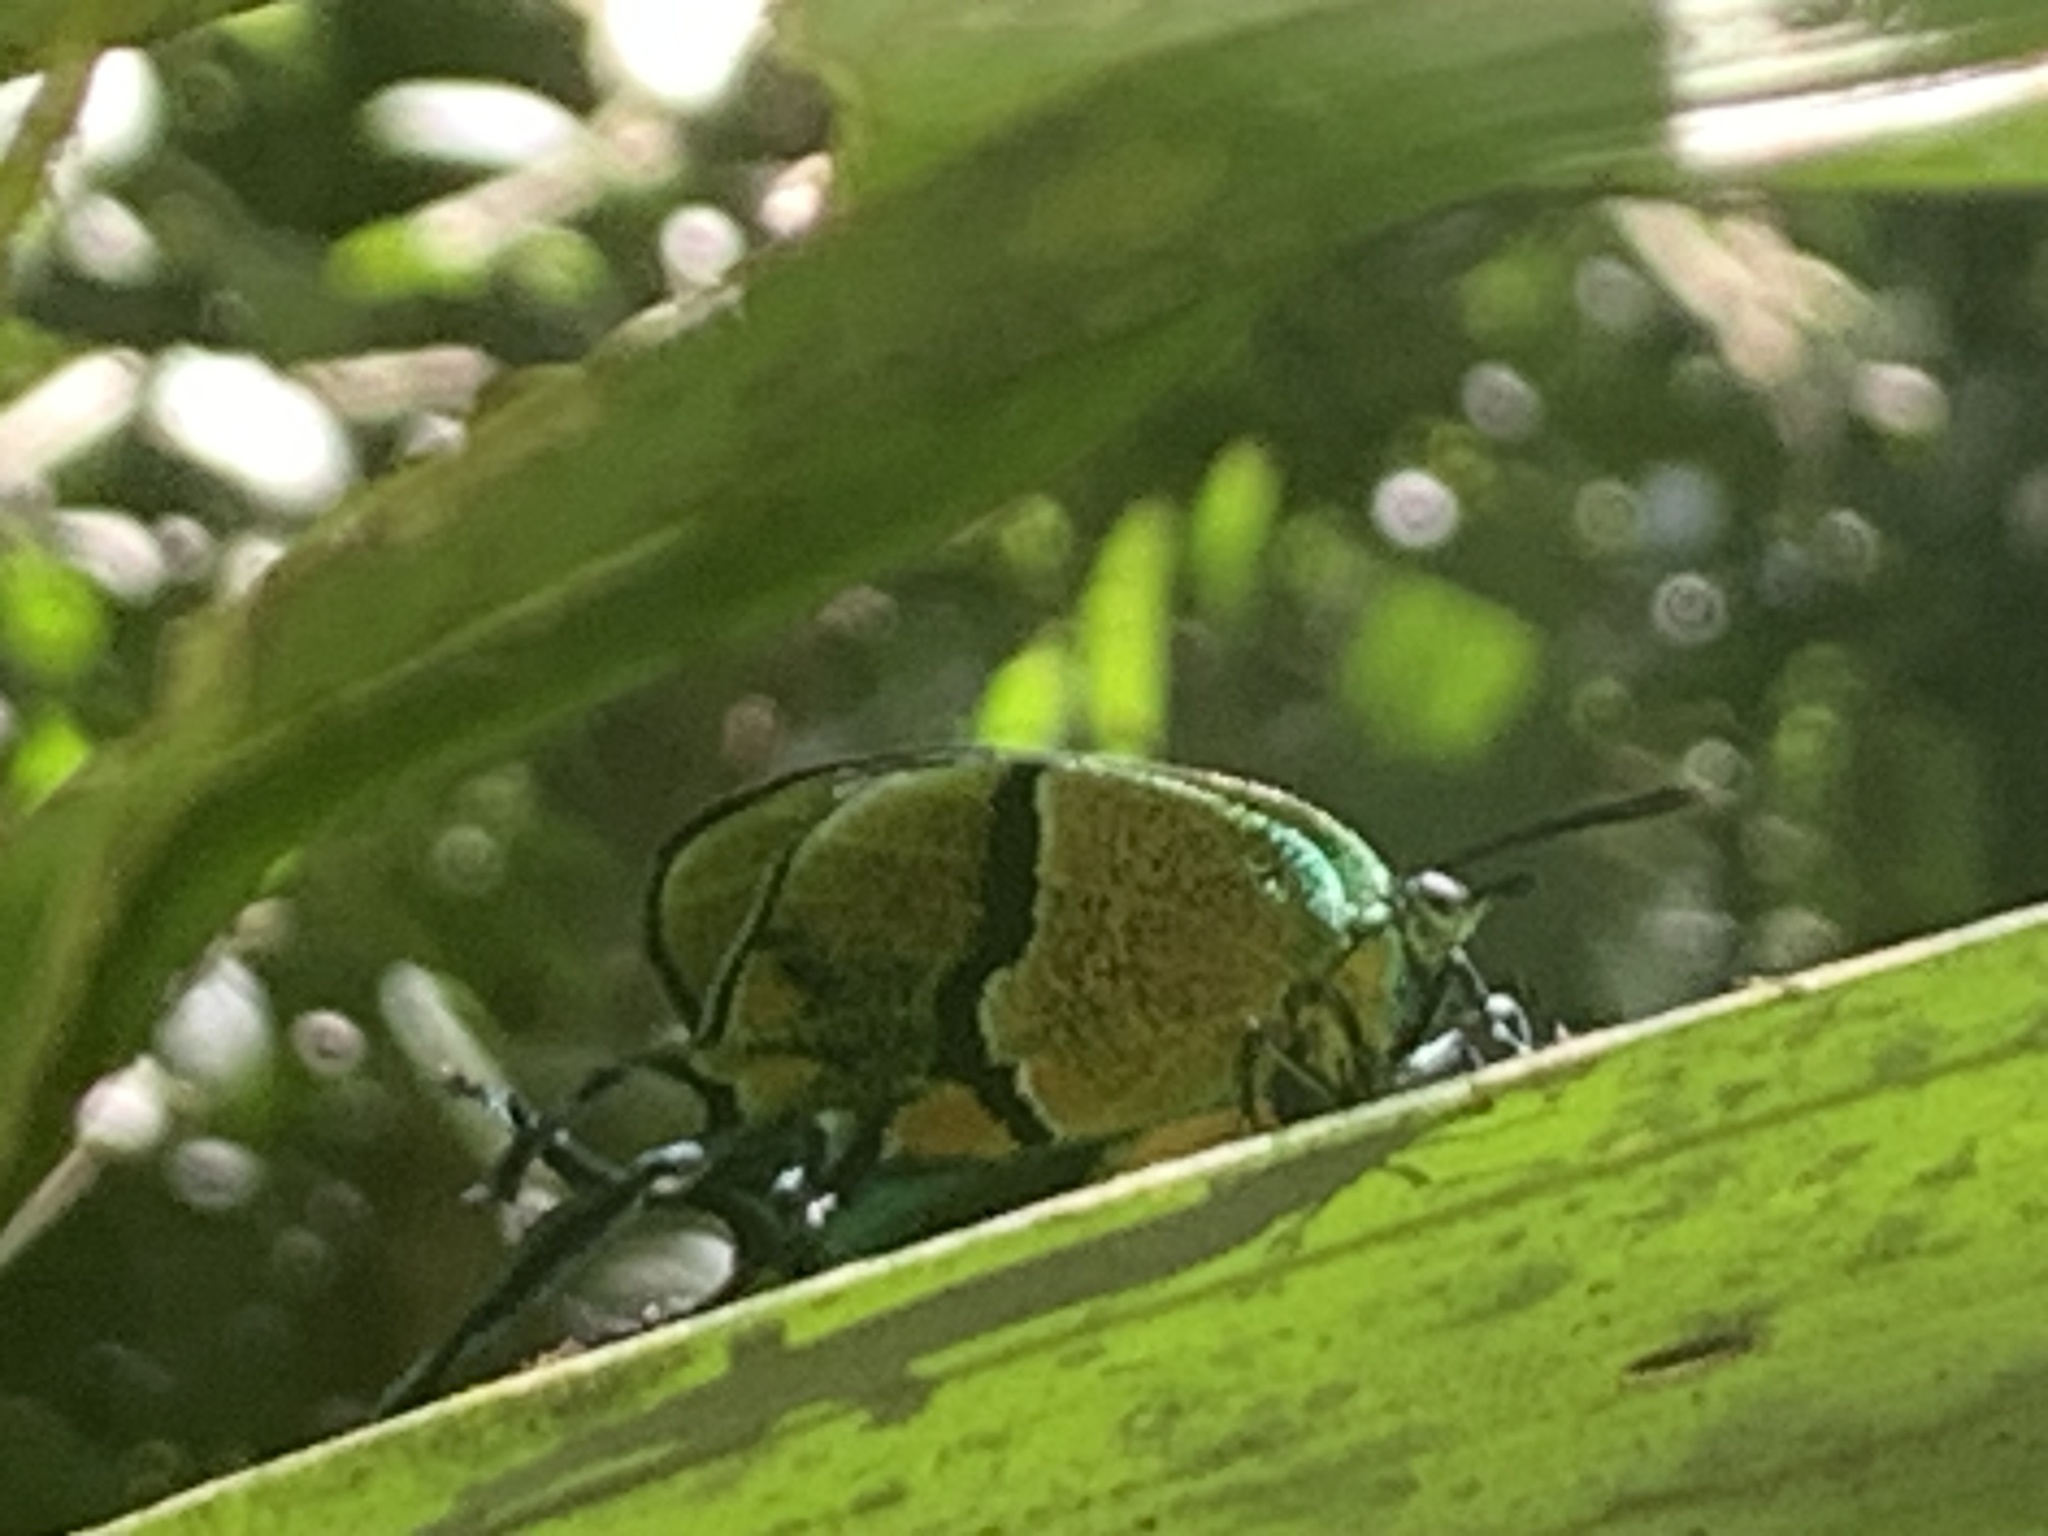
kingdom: Animalia
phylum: Arthropoda
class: Insecta
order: Lepidoptera
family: Lycaenidae
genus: Arcas
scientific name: Arcas cypria
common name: Mexican arcas
